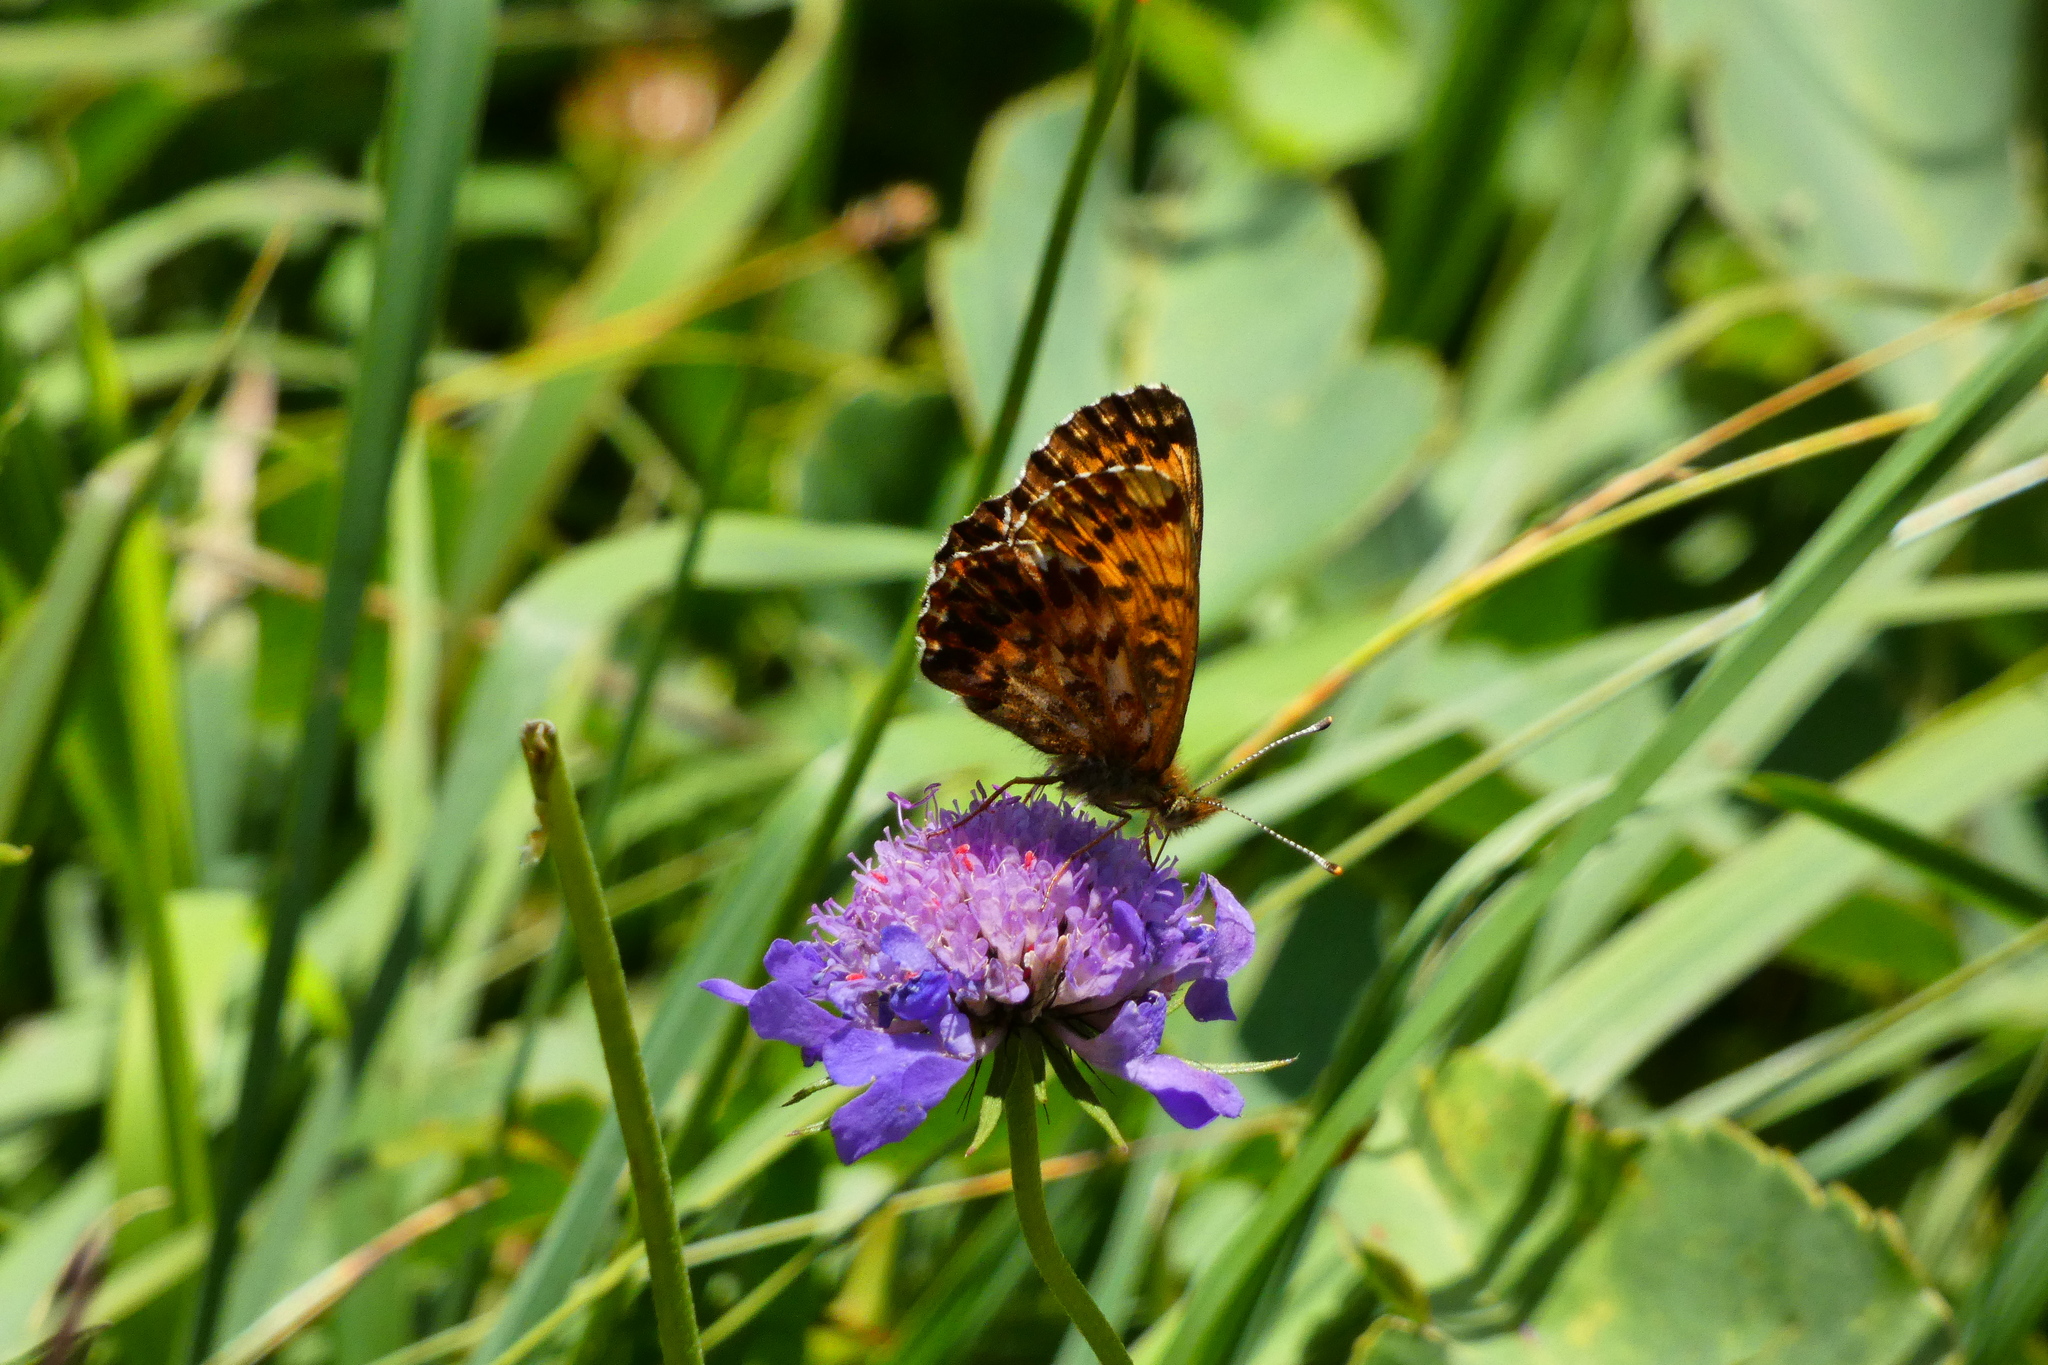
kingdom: Animalia
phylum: Arthropoda
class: Insecta
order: Lepidoptera
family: Nymphalidae
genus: Boloria
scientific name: Boloria titania
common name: Titania's fritillary
